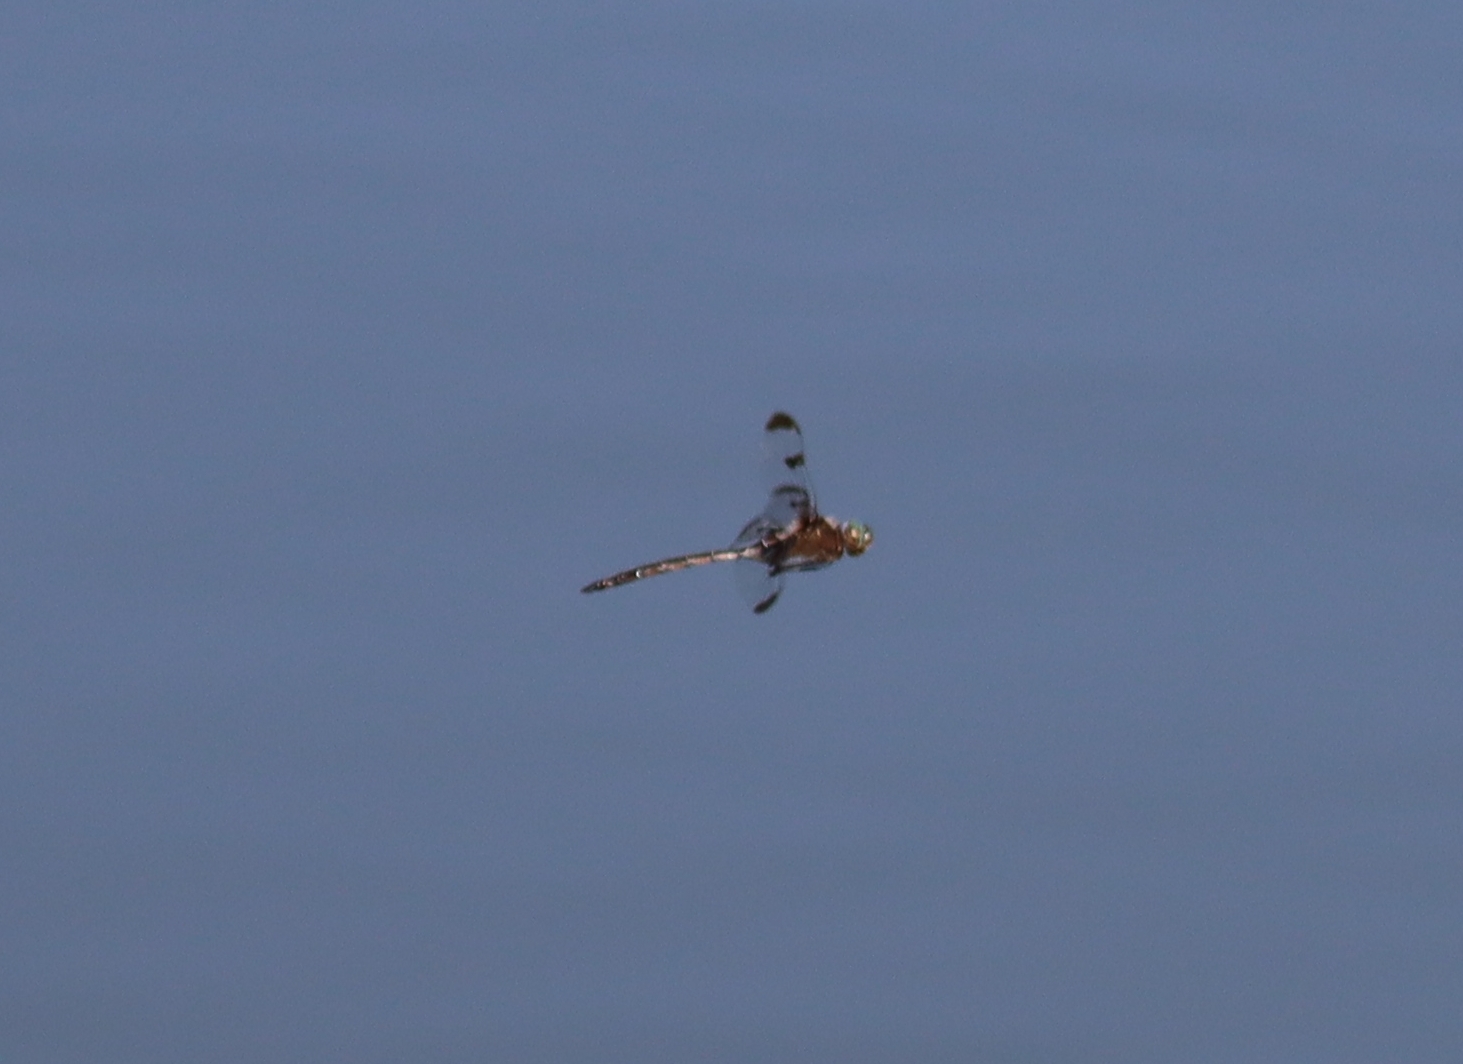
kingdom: Animalia
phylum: Arthropoda
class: Insecta
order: Odonata
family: Corduliidae
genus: Epitheca
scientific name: Epitheca princeps
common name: Prince baskettail
